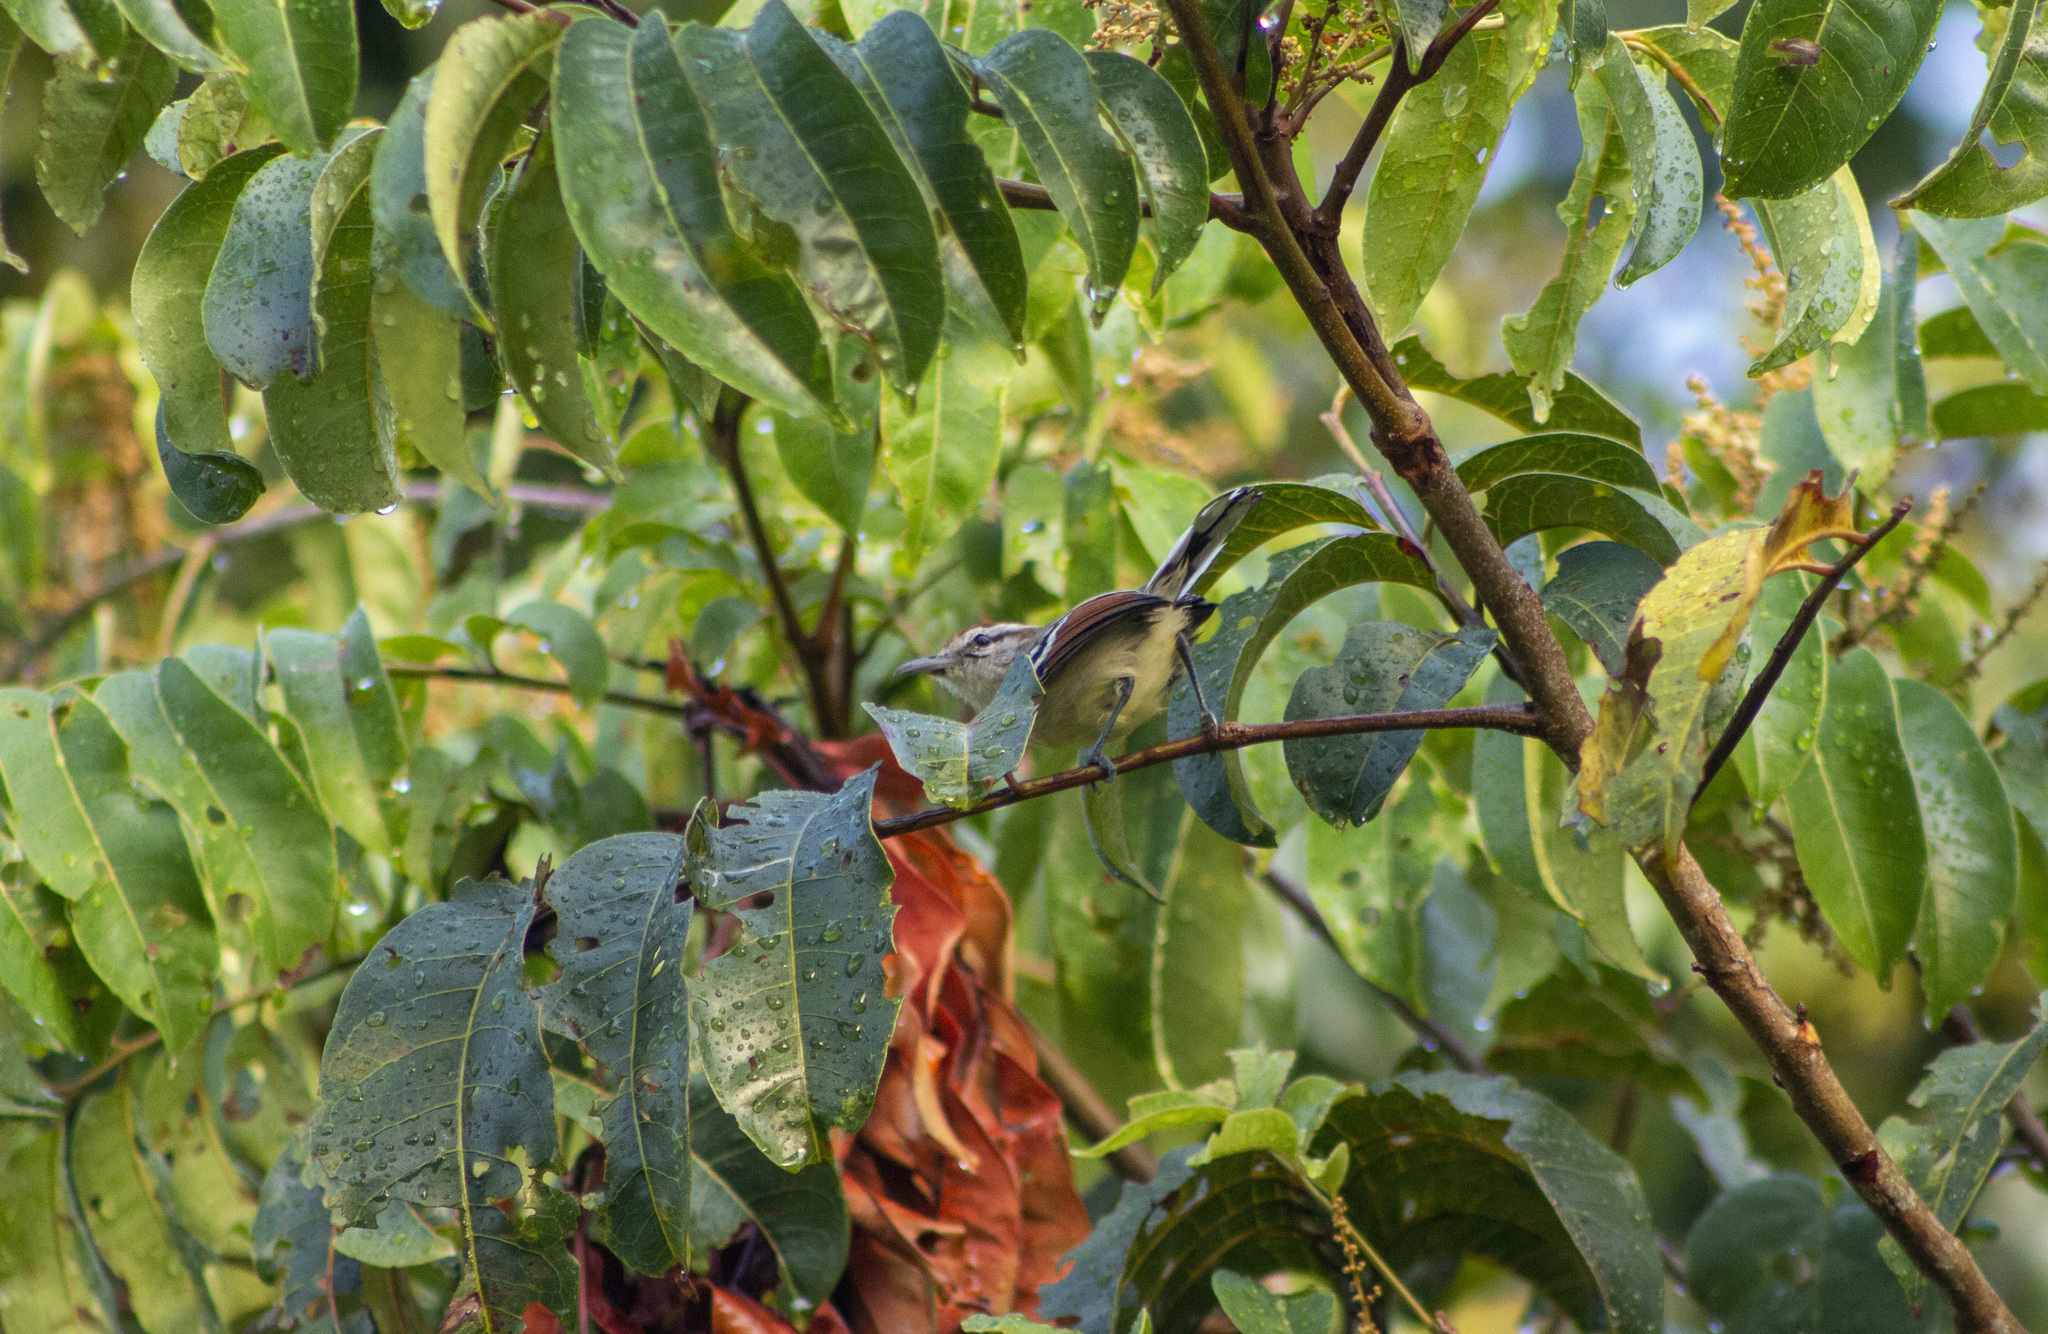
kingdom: Animalia
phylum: Chordata
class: Aves
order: Passeriformes
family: Thamnophilidae
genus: Herpsilochmus
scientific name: Herpsilochmus frater
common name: Rusty-winged antwren
